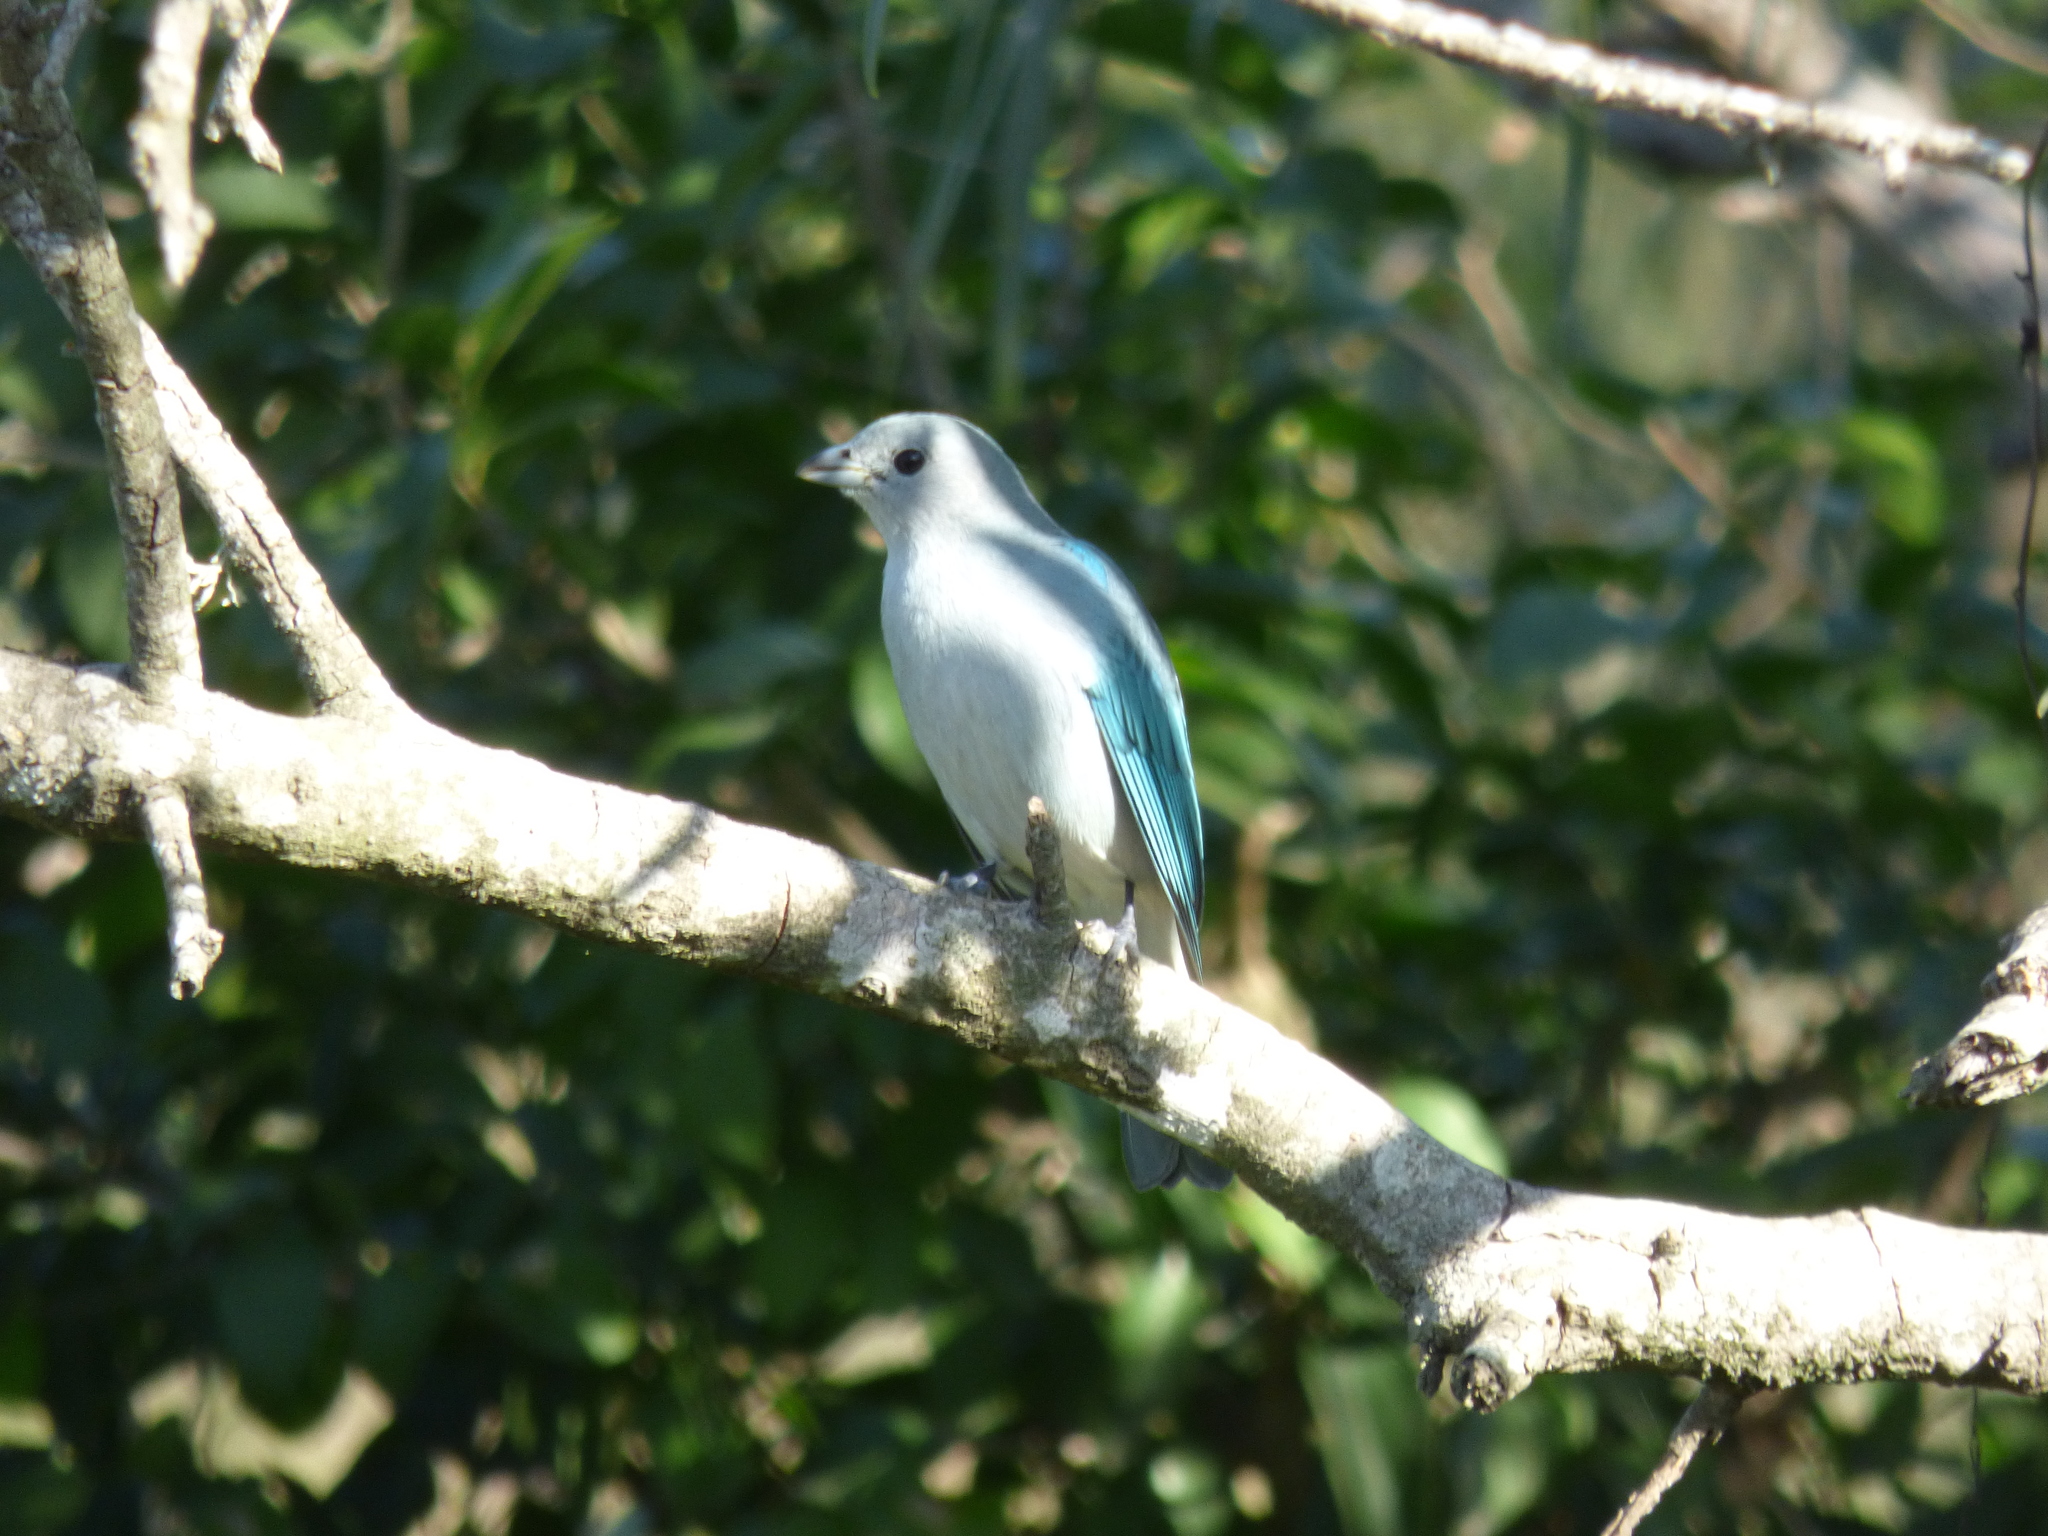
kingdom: Animalia
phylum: Chordata
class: Aves
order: Passeriformes
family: Thraupidae
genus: Thraupis
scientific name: Thraupis sayaca
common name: Sayaca tanager
